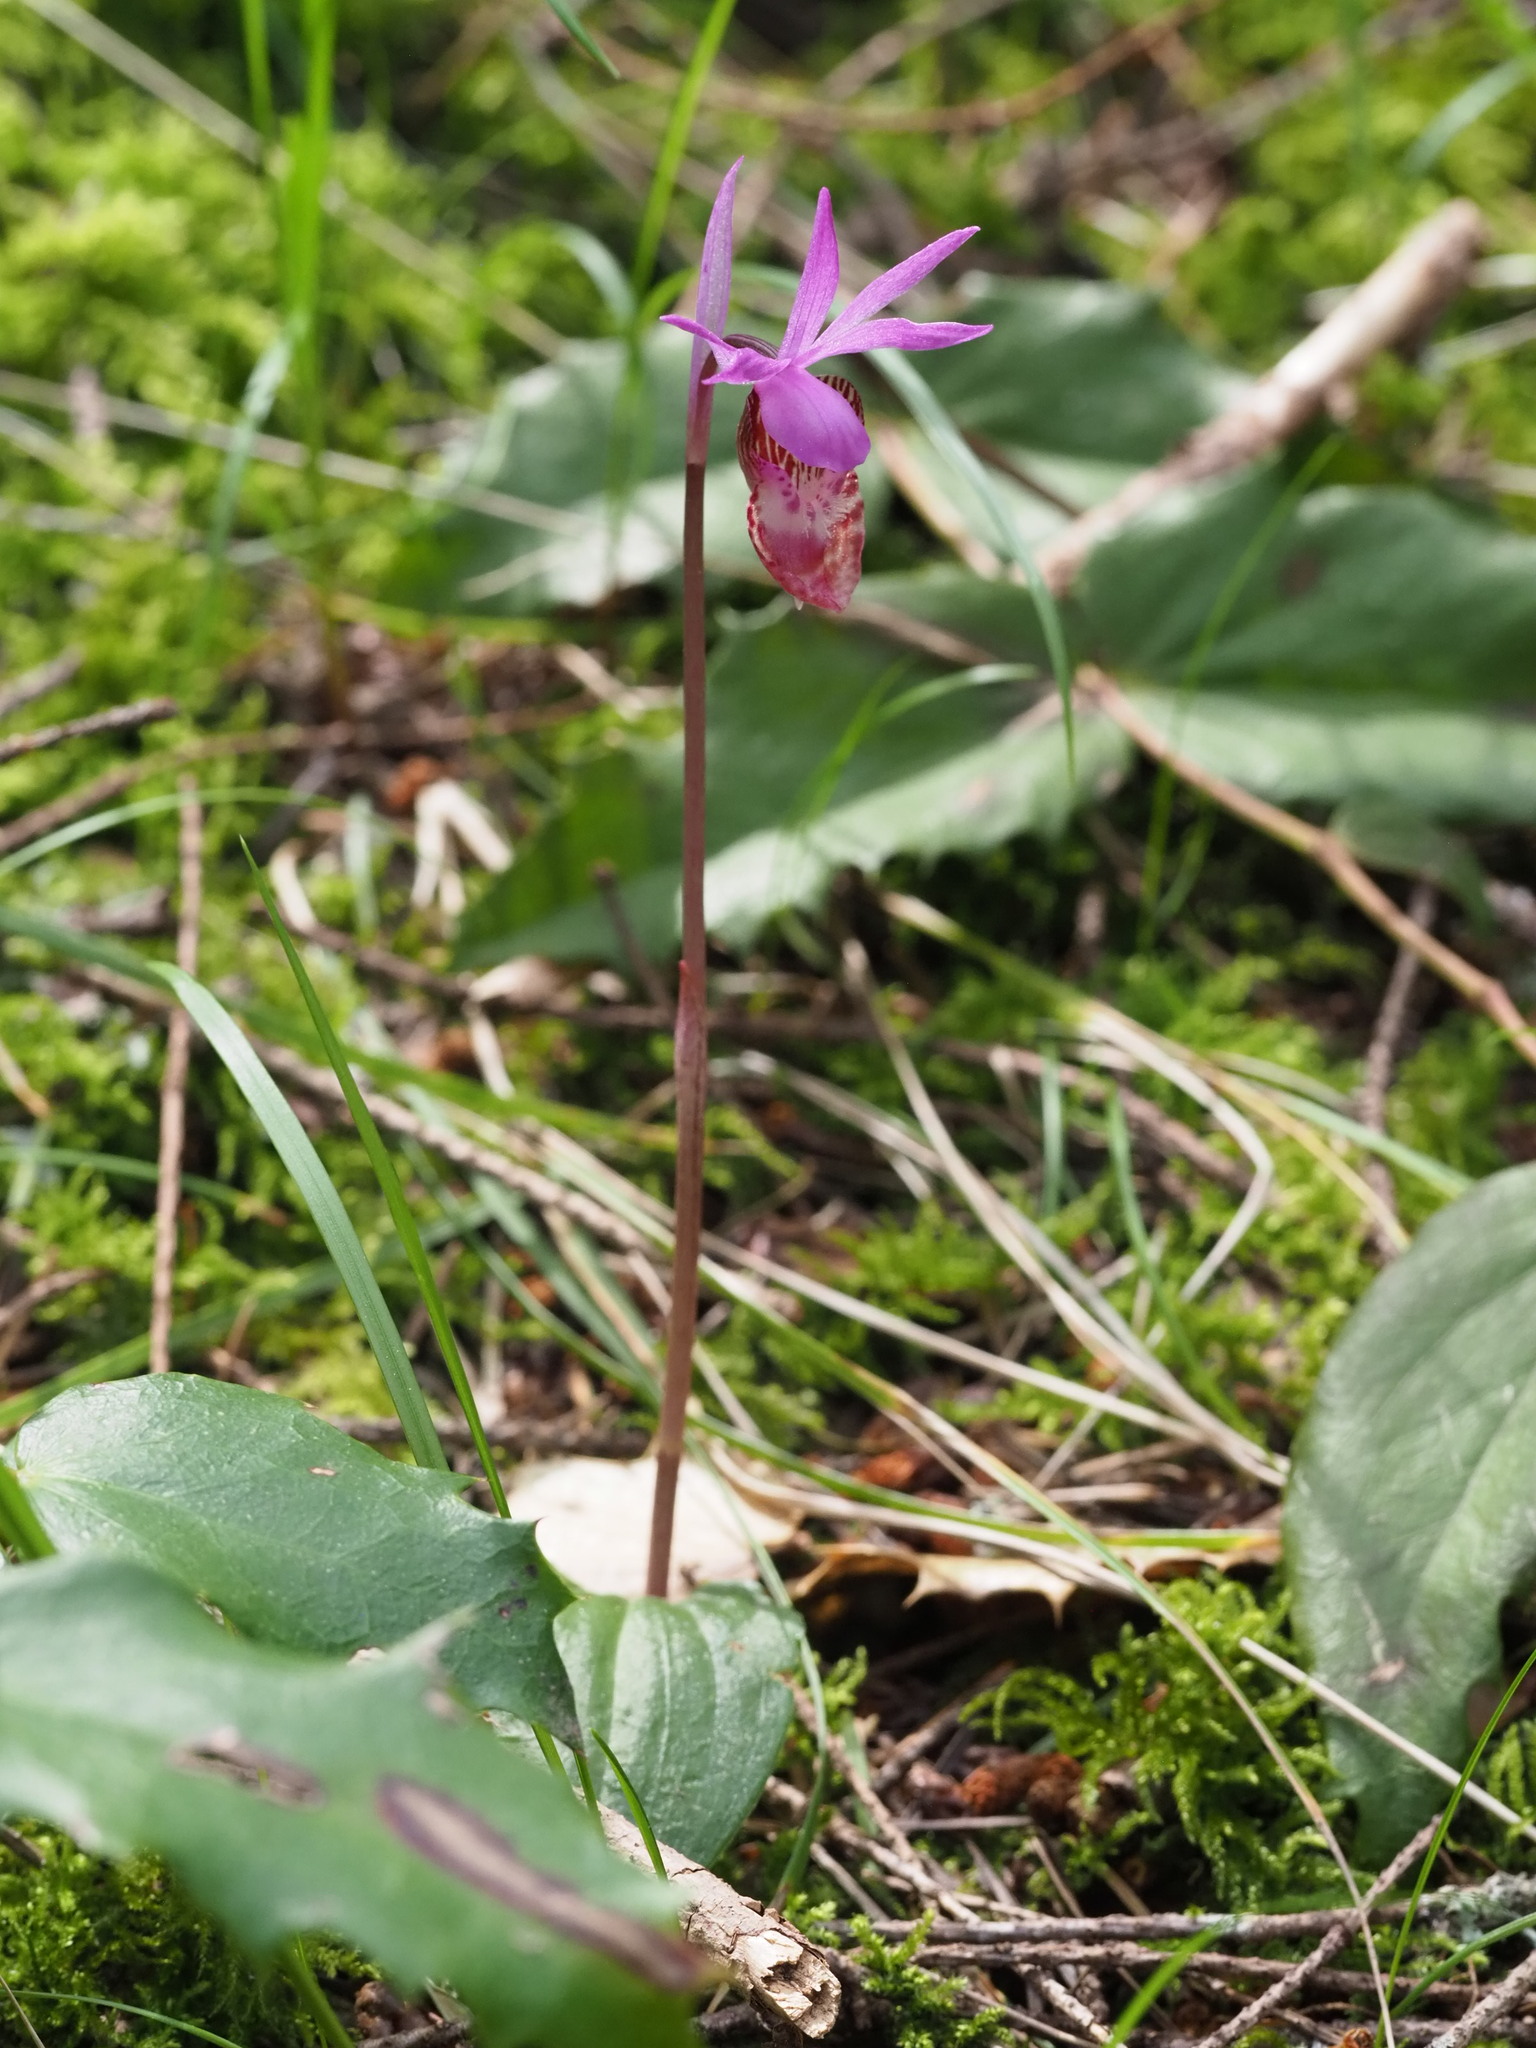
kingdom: Plantae
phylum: Tracheophyta
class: Liliopsida
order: Asparagales
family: Orchidaceae
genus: Calypso
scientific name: Calypso bulbosa
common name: Calypso
